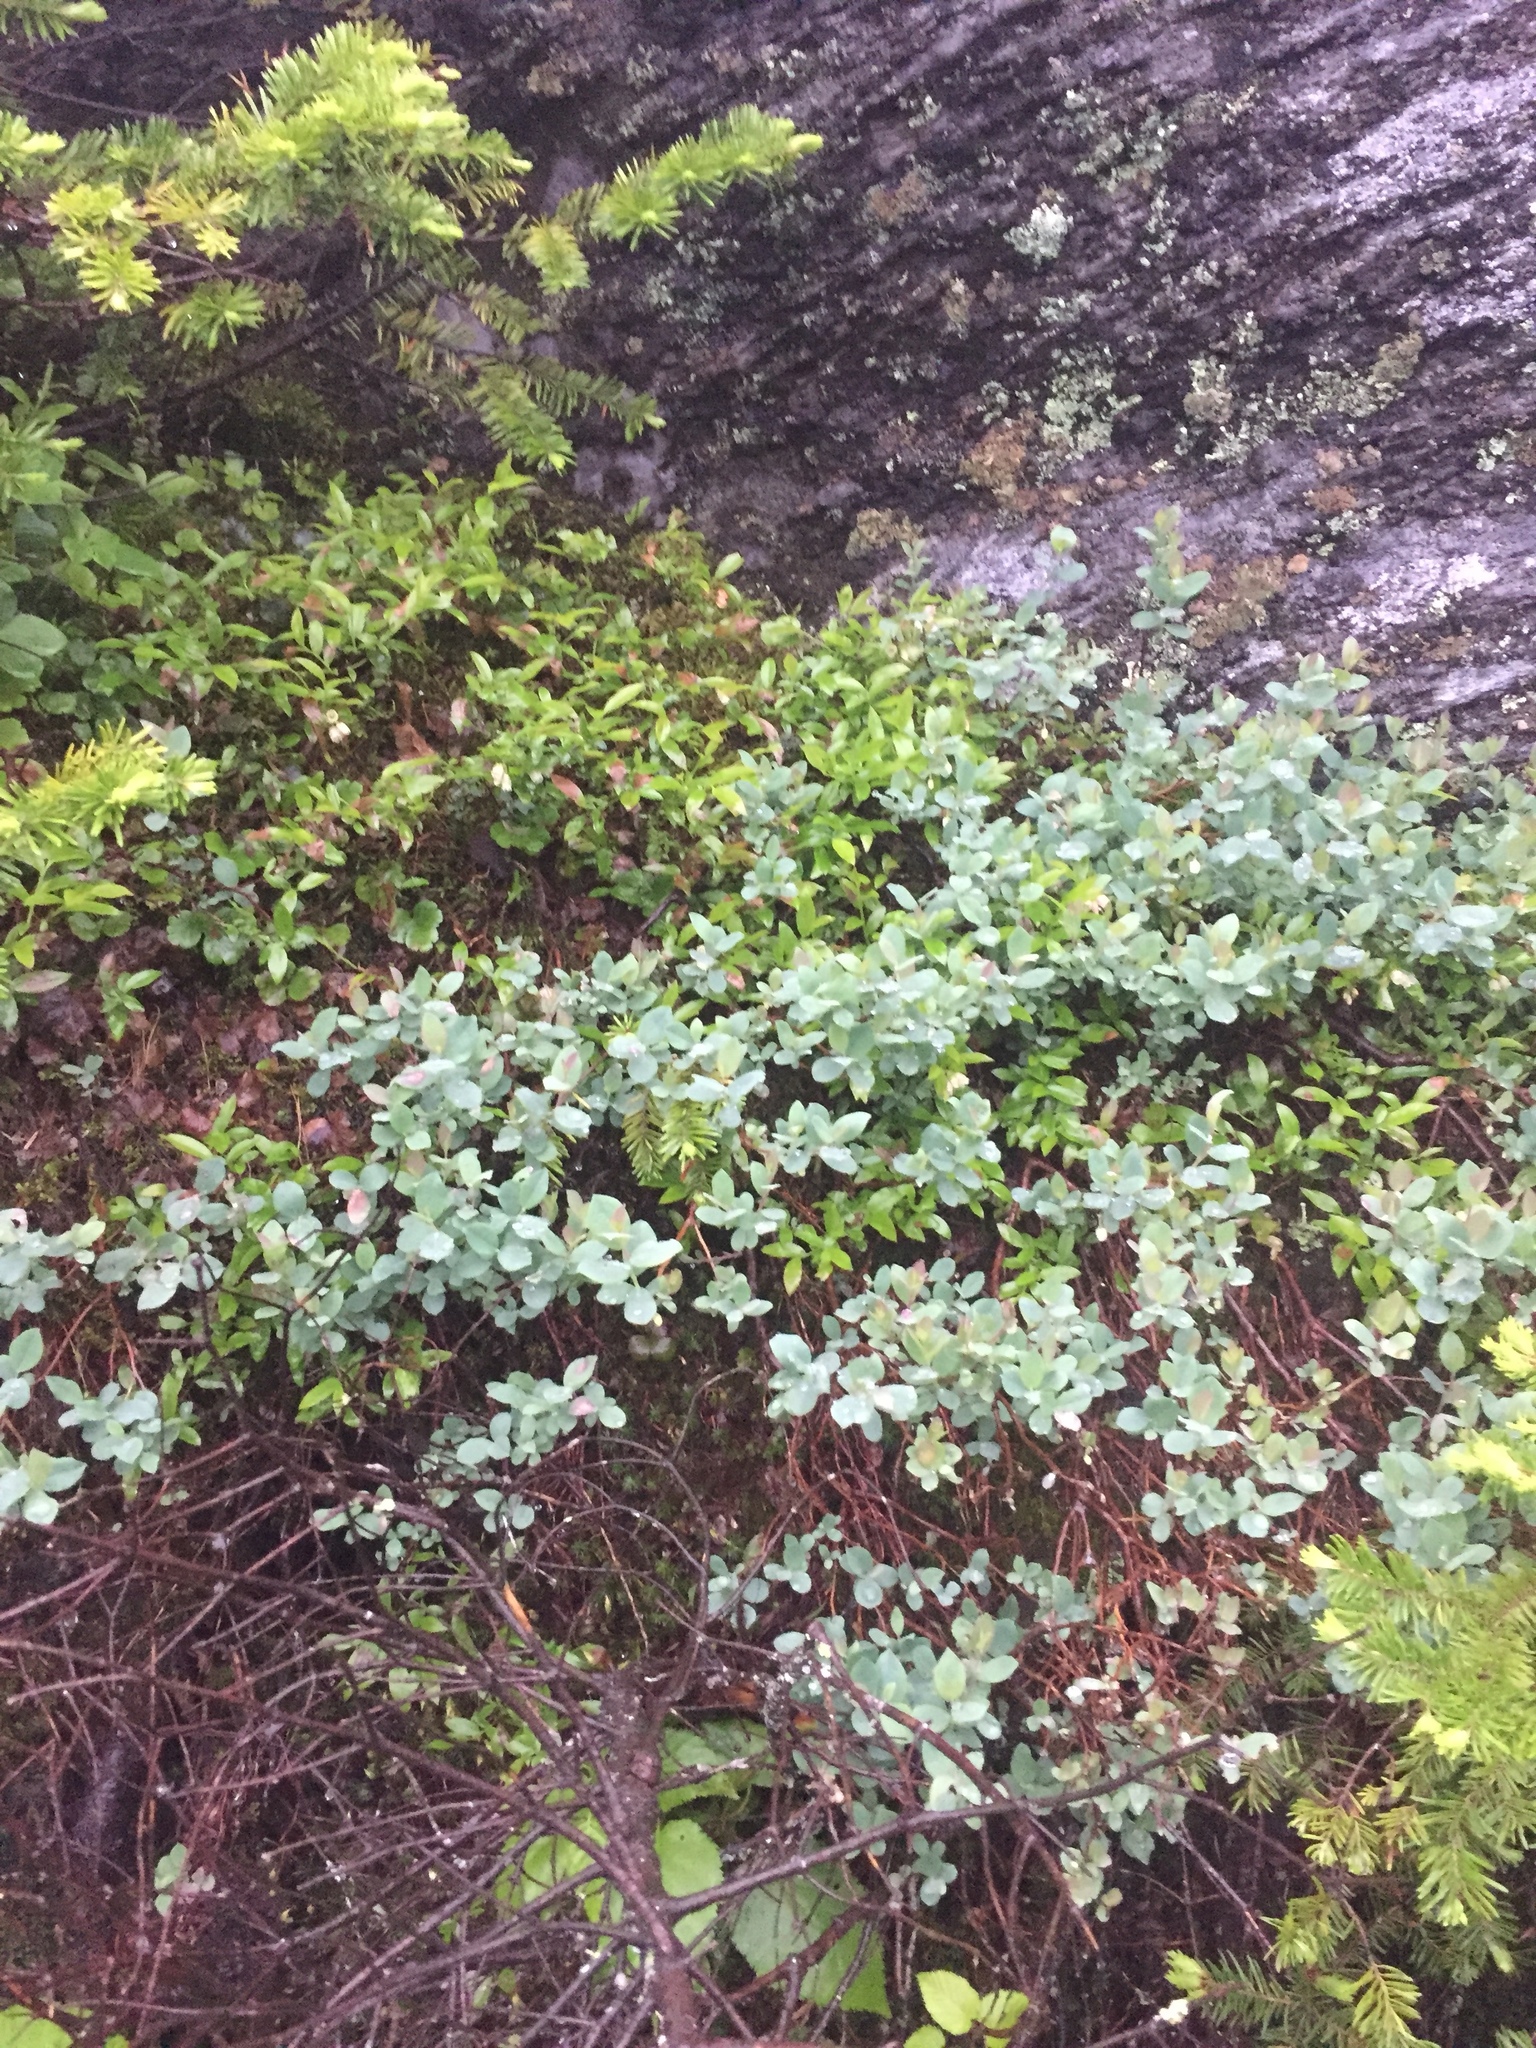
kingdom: Plantae
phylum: Tracheophyta
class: Magnoliopsida
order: Ericales
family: Ericaceae
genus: Vaccinium
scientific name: Vaccinium uliginosum
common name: Bog bilberry
